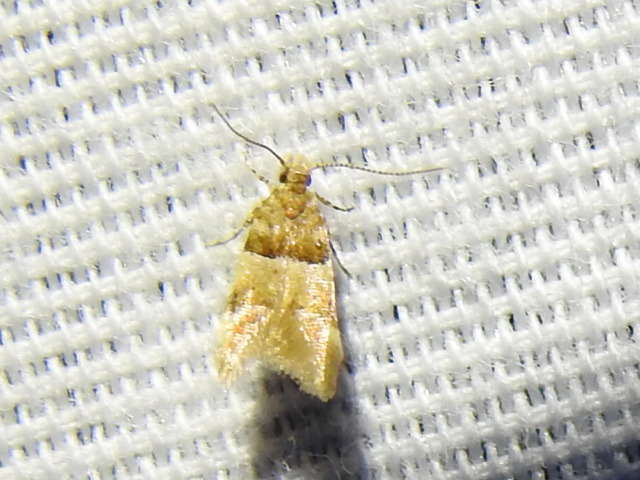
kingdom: Animalia
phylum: Arthropoda
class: Insecta
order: Lepidoptera
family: Gelechiidae
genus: Theisoa
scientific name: Theisoa constrictella
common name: Constricted twirler
